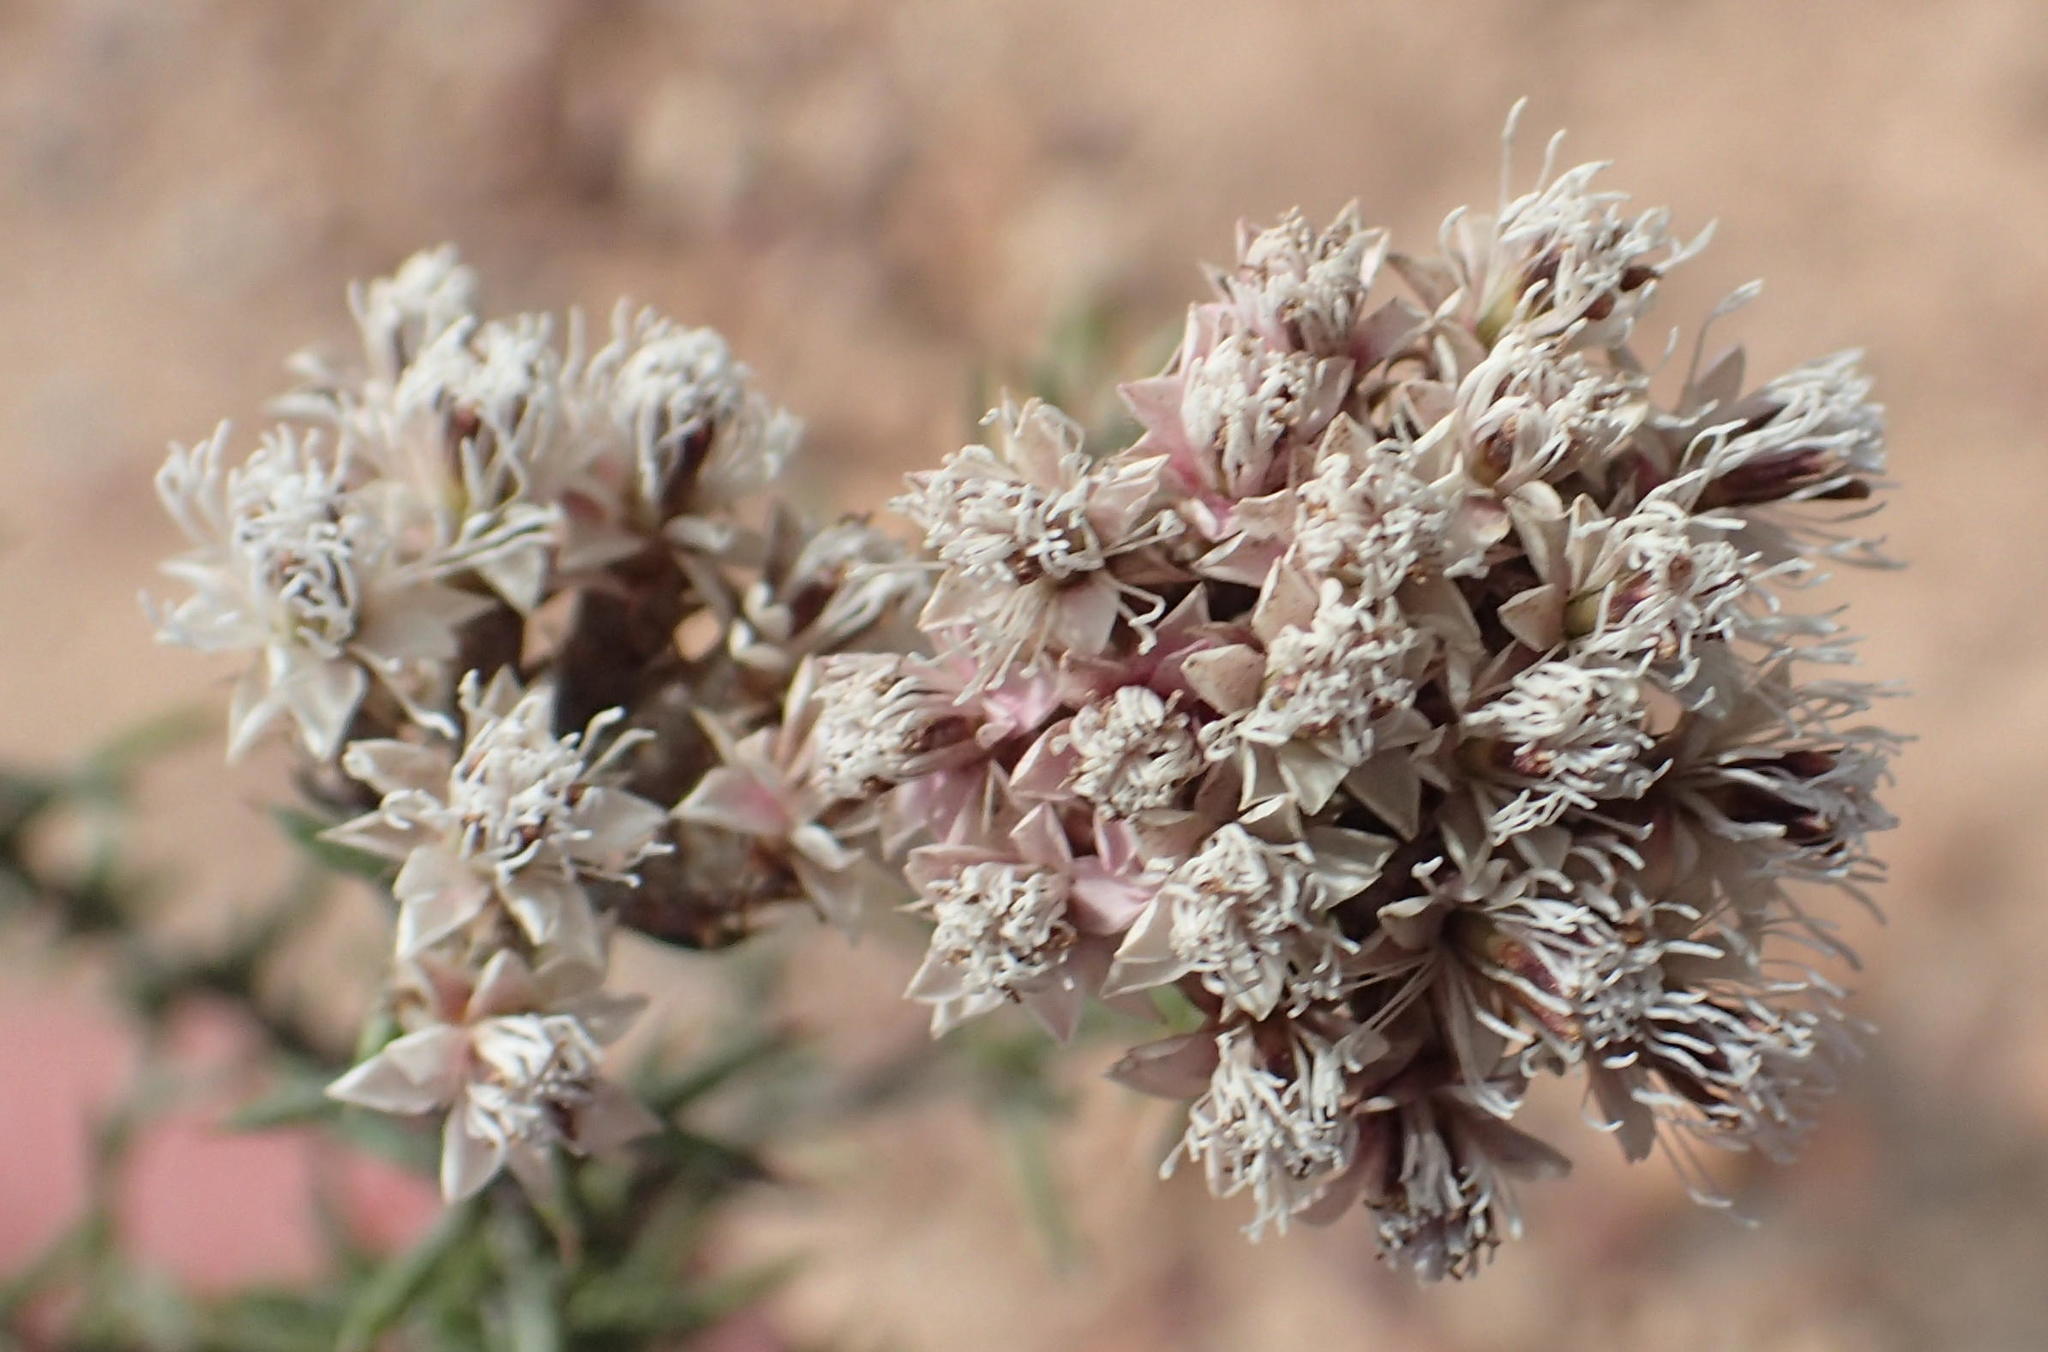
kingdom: Plantae
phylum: Tracheophyta
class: Magnoliopsida
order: Asterales
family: Asteraceae
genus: Metalasia
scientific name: Metalasia massonii
